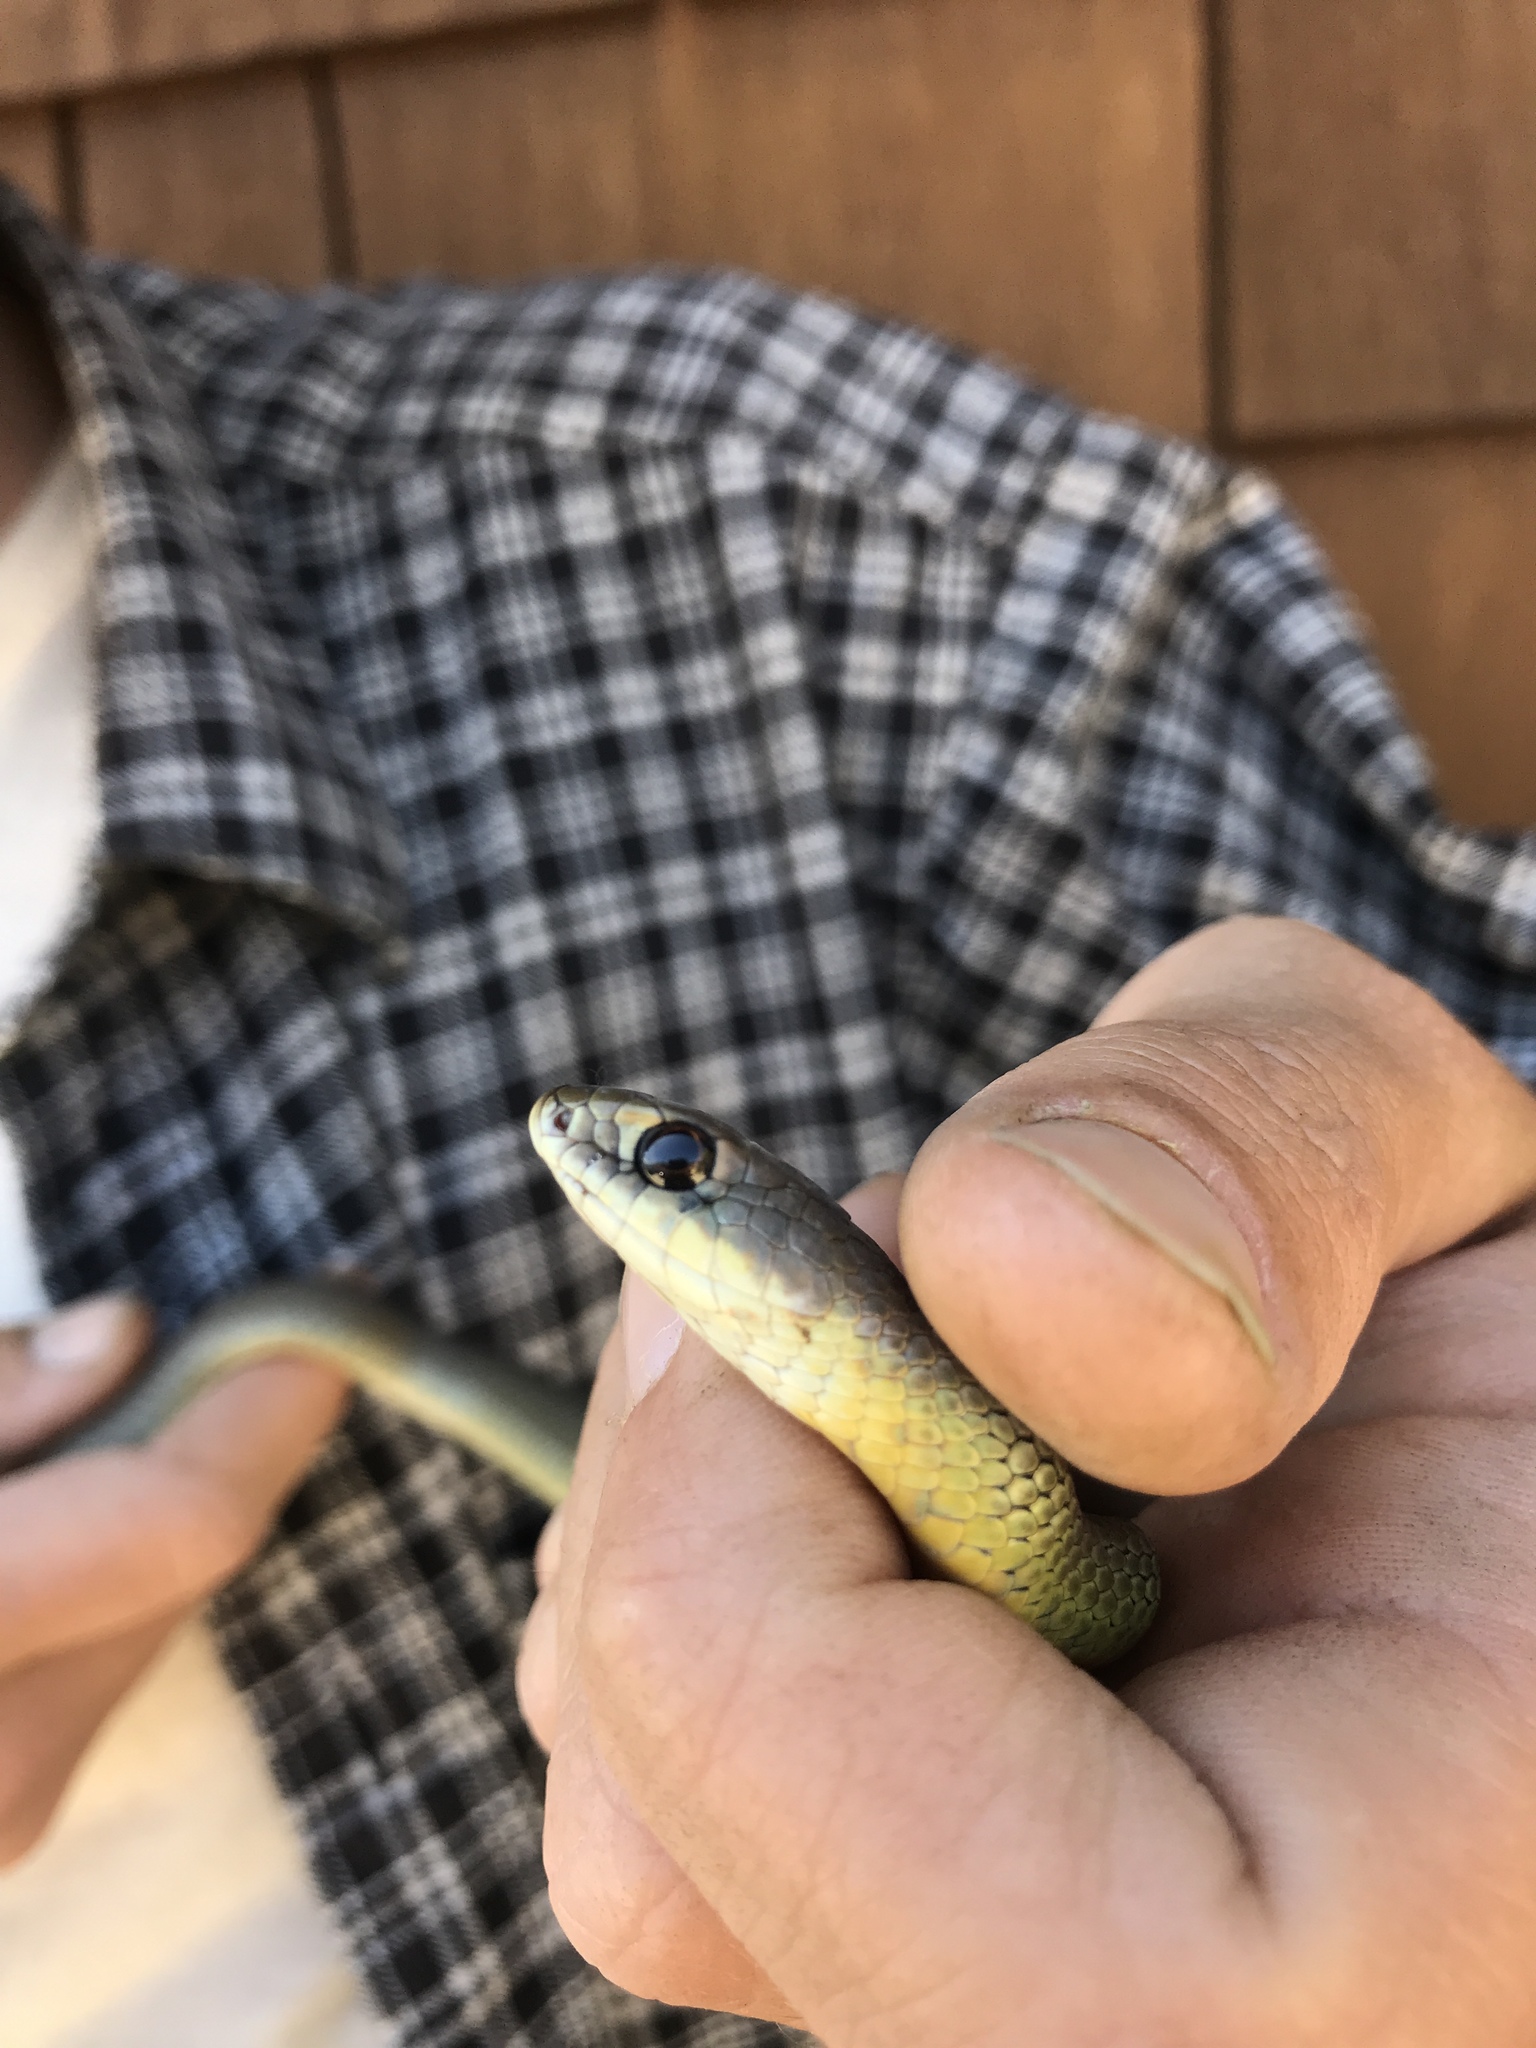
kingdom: Animalia
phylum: Chordata
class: Squamata
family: Colubridae
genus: Coluber
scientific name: Coluber constrictor
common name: Eastern racer
